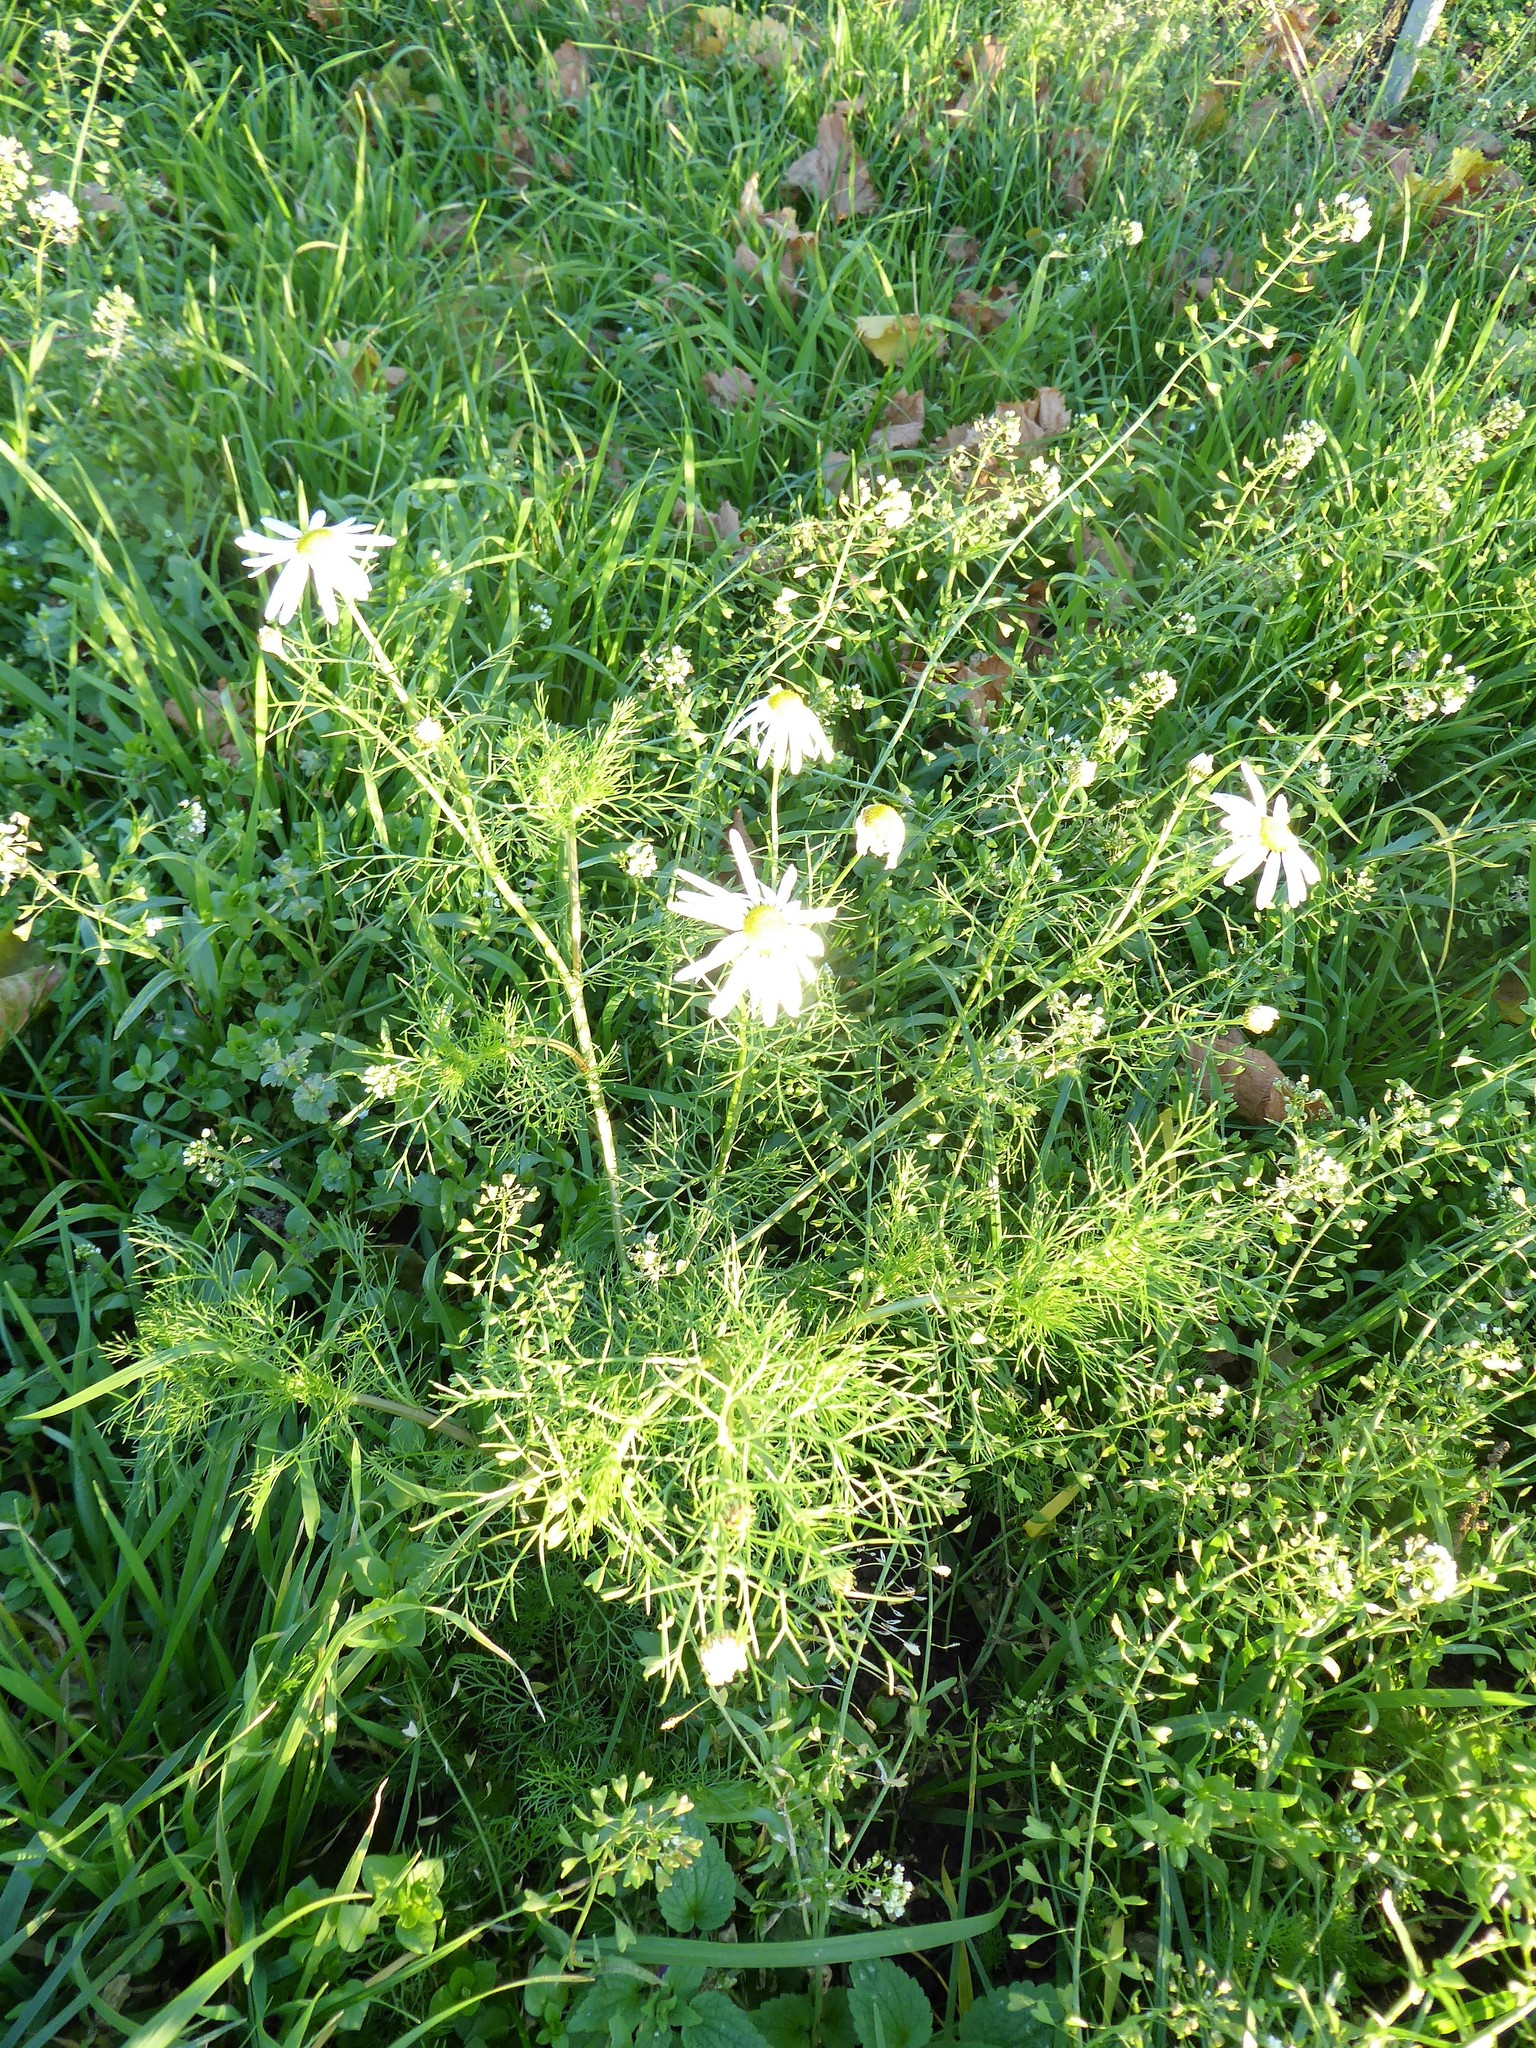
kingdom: Plantae
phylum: Tracheophyta
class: Magnoliopsida
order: Asterales
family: Asteraceae
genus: Tripleurospermum
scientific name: Tripleurospermum inodorum
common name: Scentless mayweed
